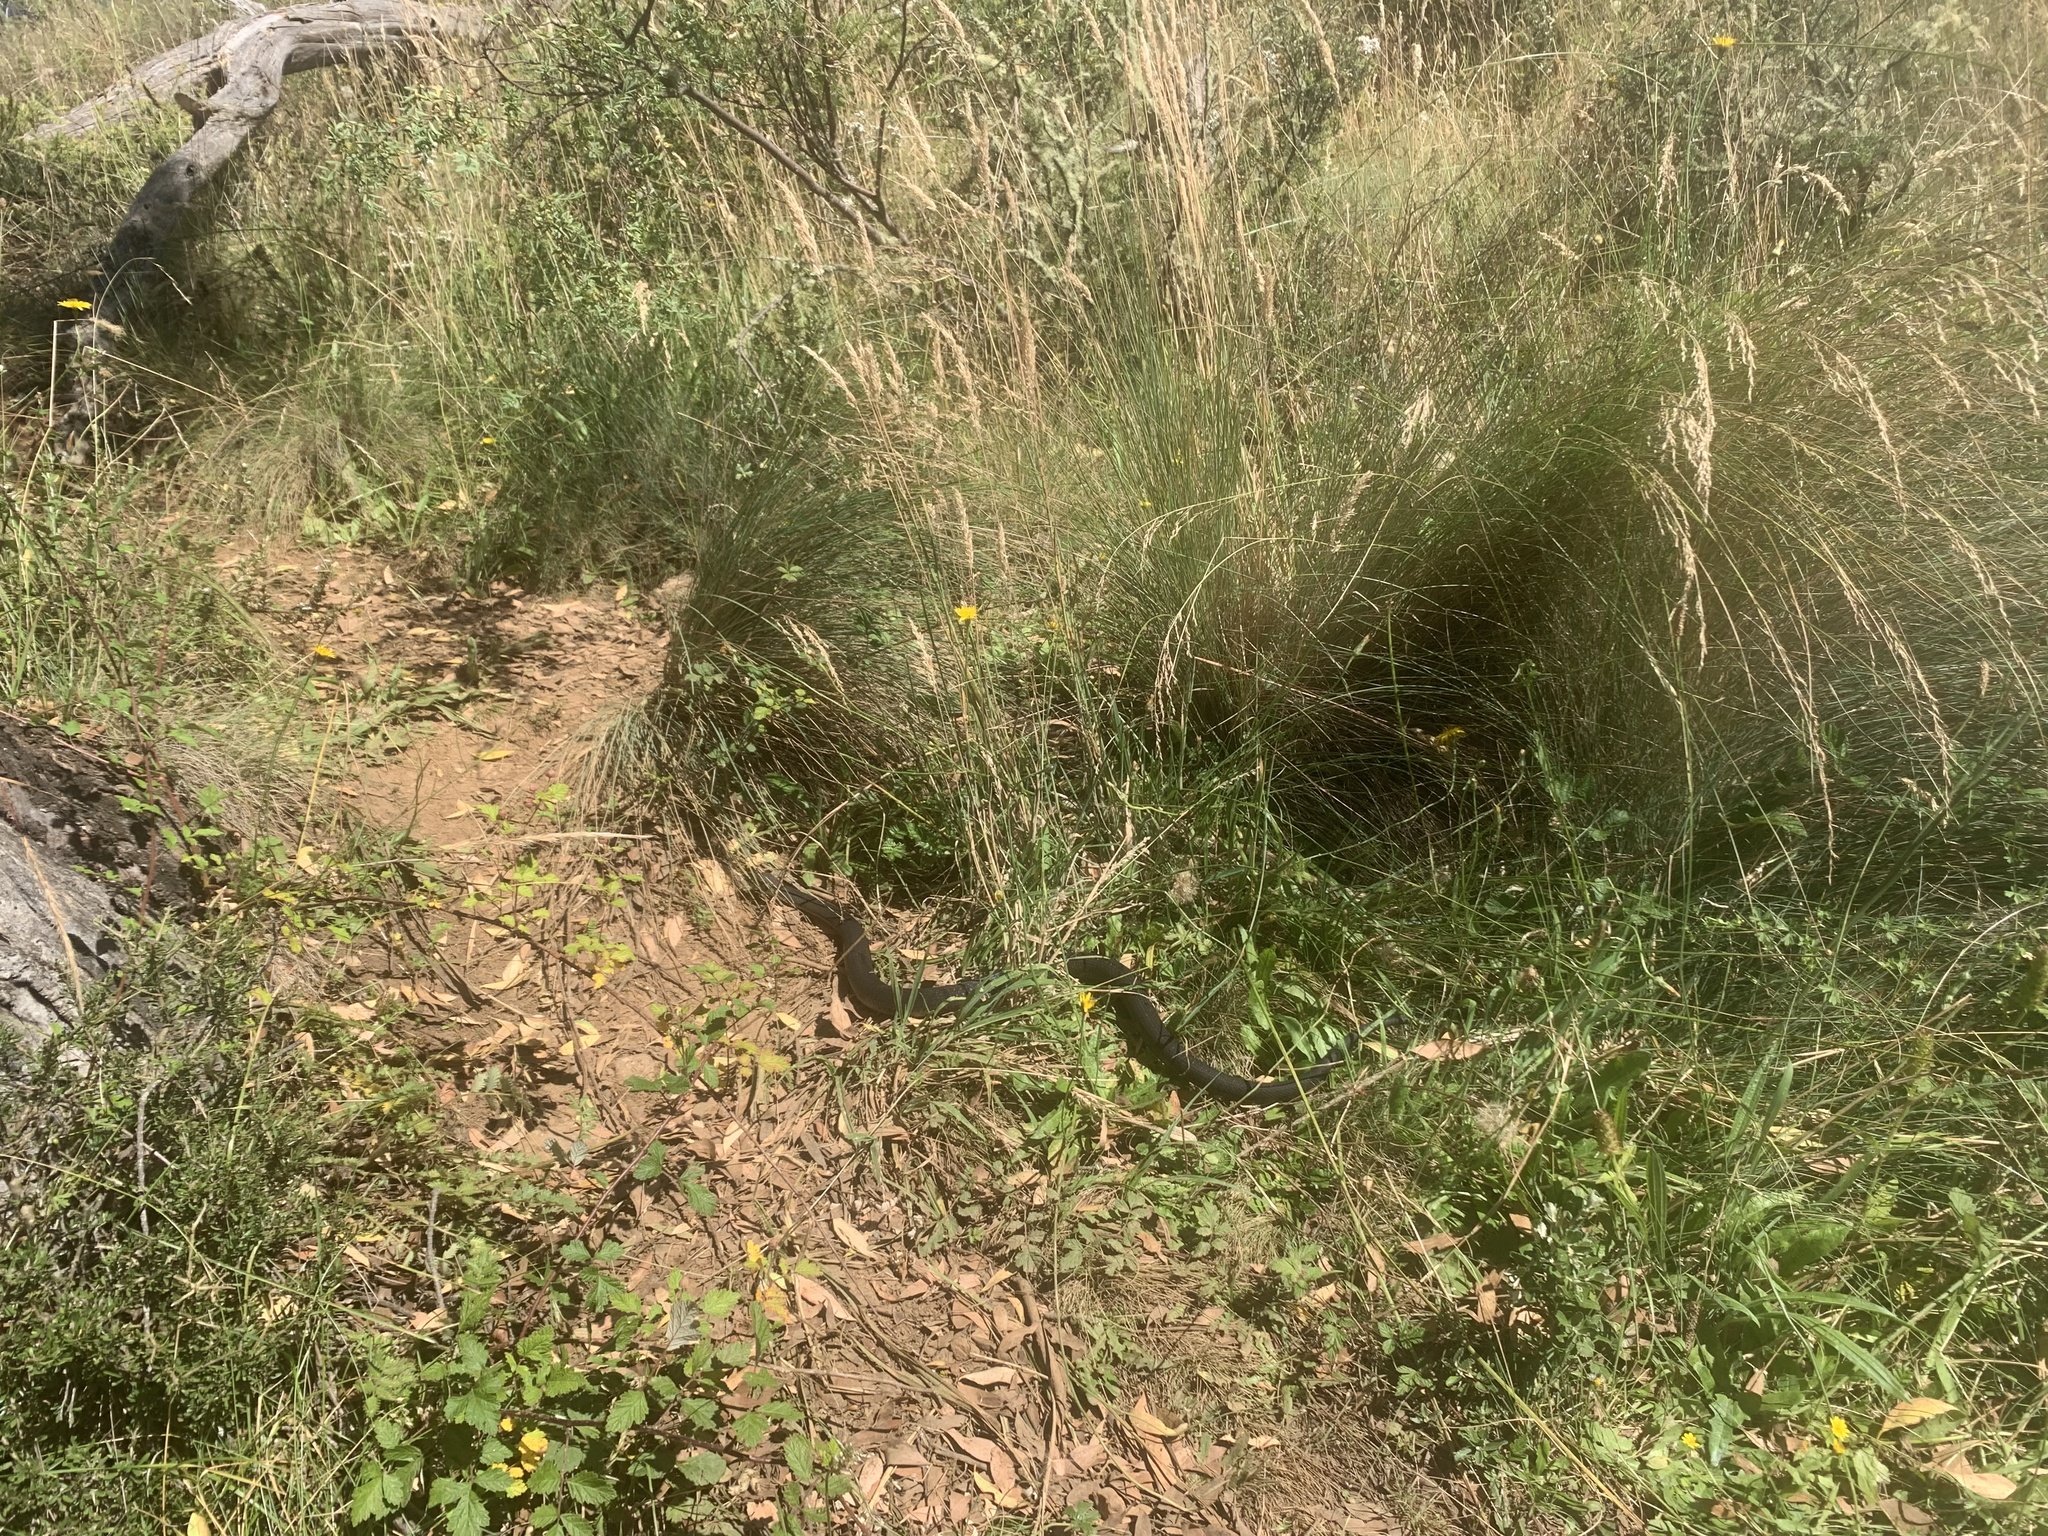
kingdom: Animalia
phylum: Chordata
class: Squamata
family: Elapidae
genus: Austrelaps
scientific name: Austrelaps ramsayi
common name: Highlands copperhead
